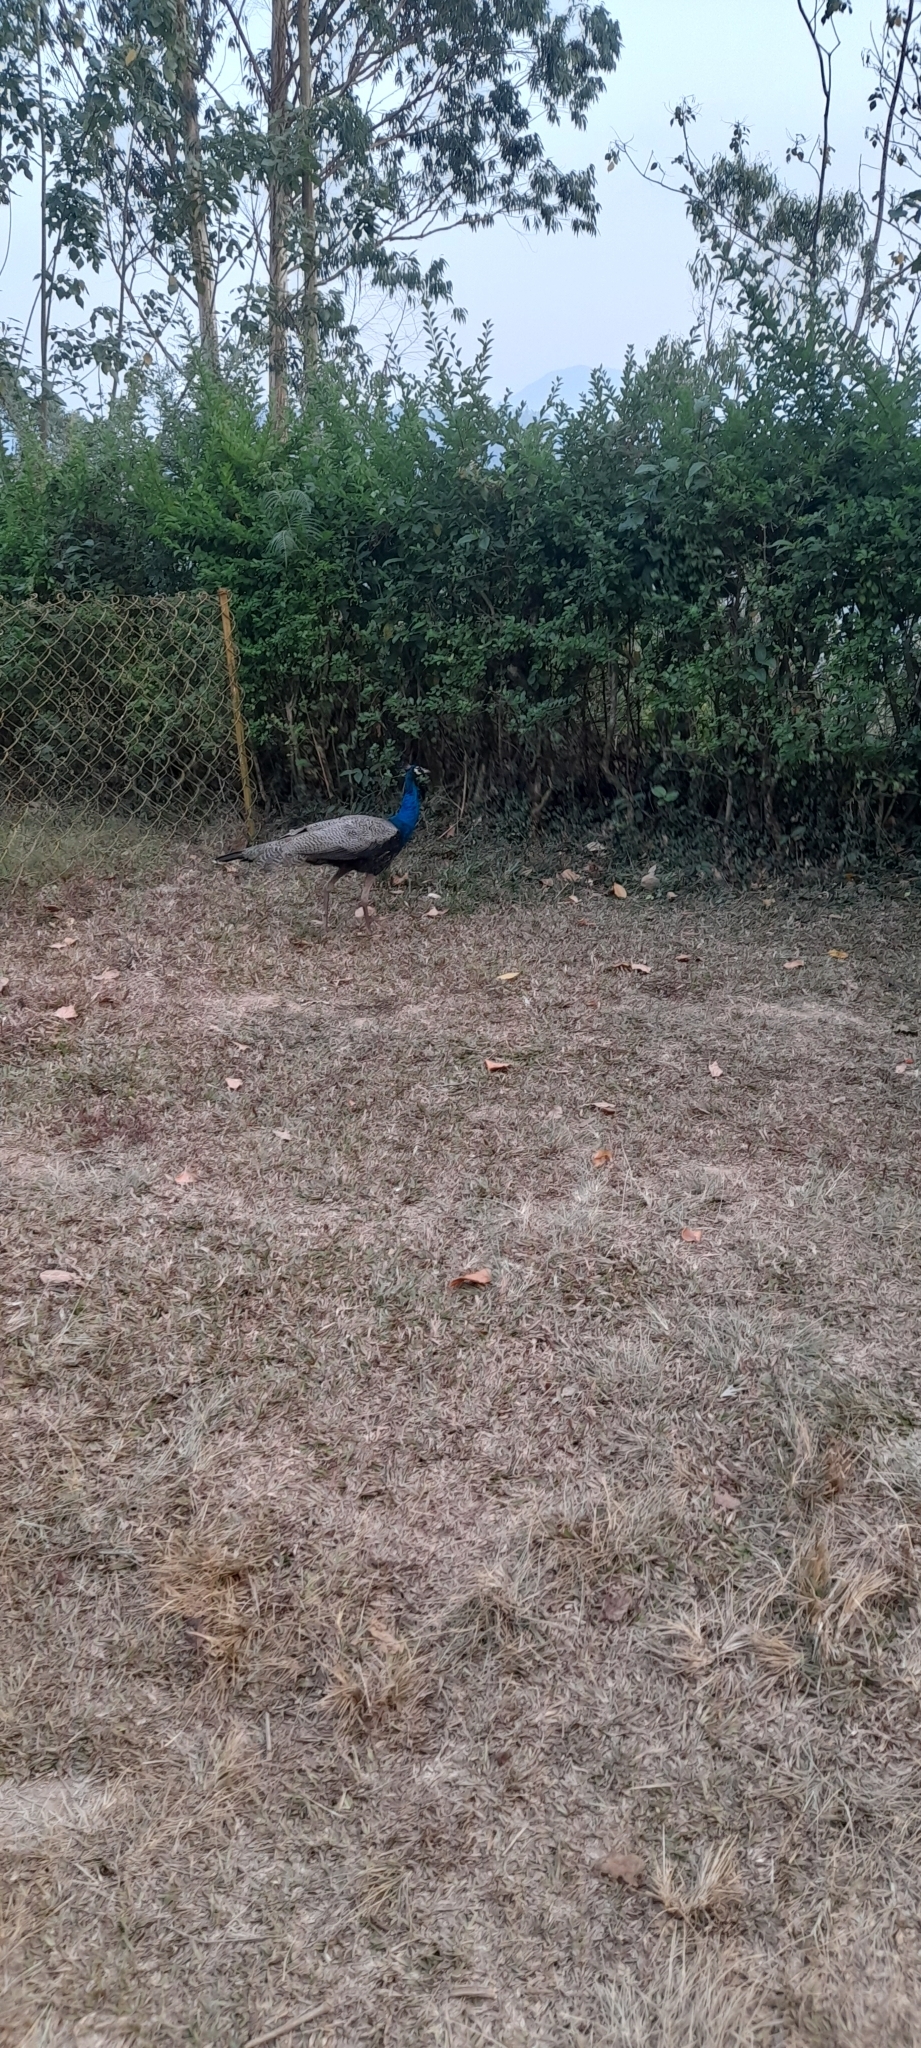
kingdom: Animalia
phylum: Chordata
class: Aves
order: Galliformes
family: Phasianidae
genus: Pavo
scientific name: Pavo cristatus
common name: Indian peafowl
